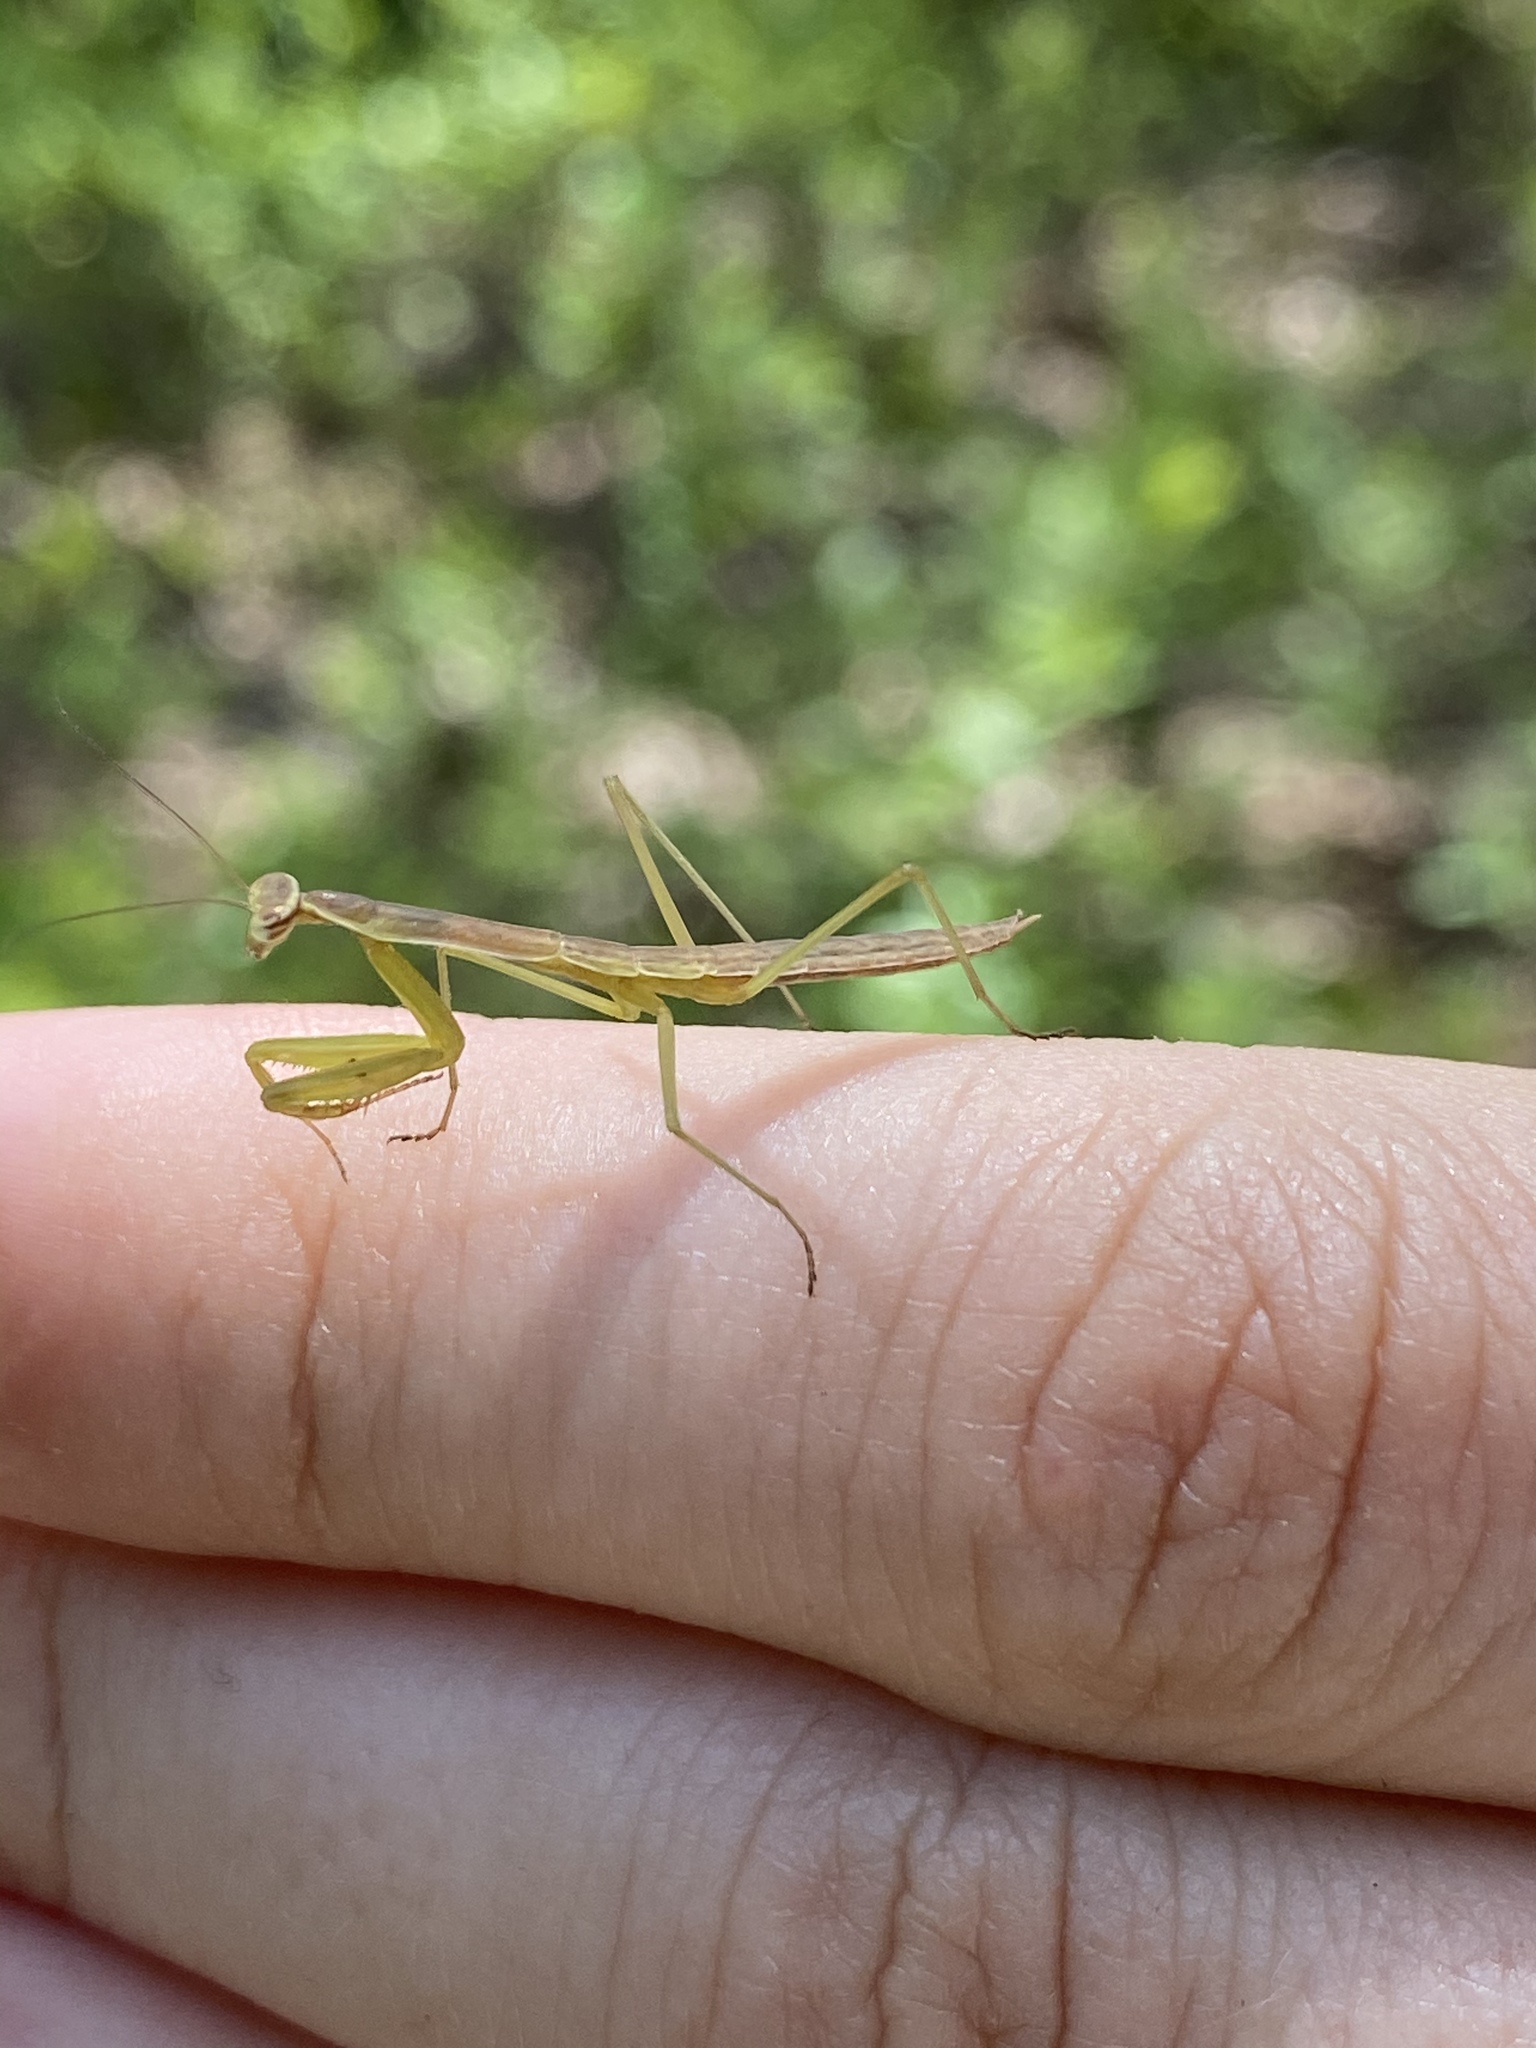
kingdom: Animalia
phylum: Arthropoda
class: Insecta
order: Mantodea
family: Mantidae
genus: Tenodera
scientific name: Tenodera sinensis
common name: Chinese mantis
